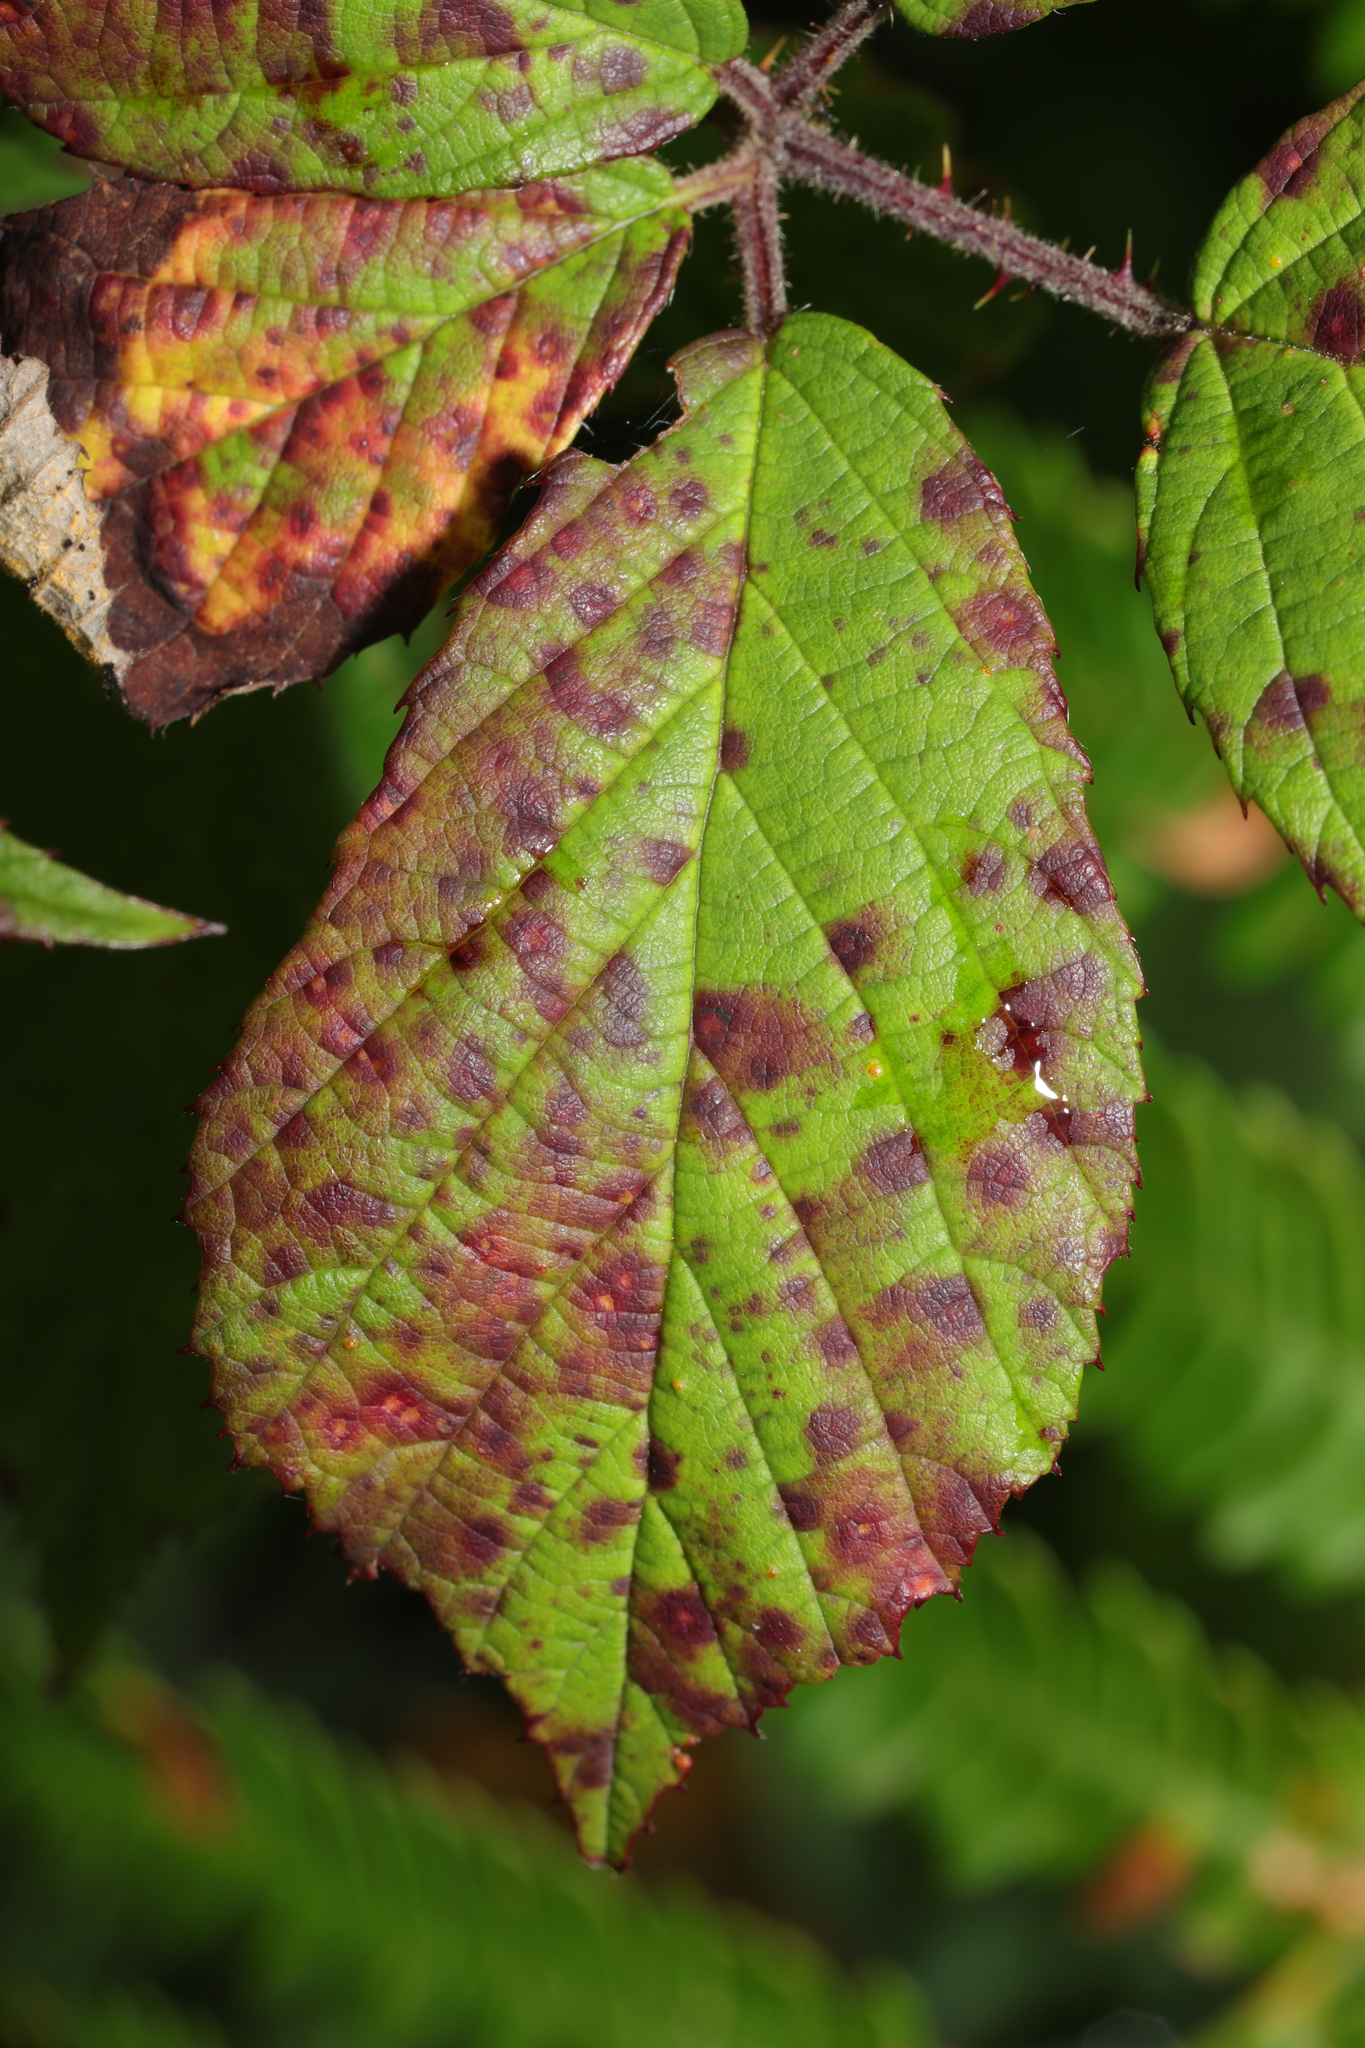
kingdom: Fungi
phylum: Basidiomycota
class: Pucciniomycetes
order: Pucciniales
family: Phragmidiaceae
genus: Phragmidium
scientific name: Phragmidium violaceum
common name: Violet bramble rust
